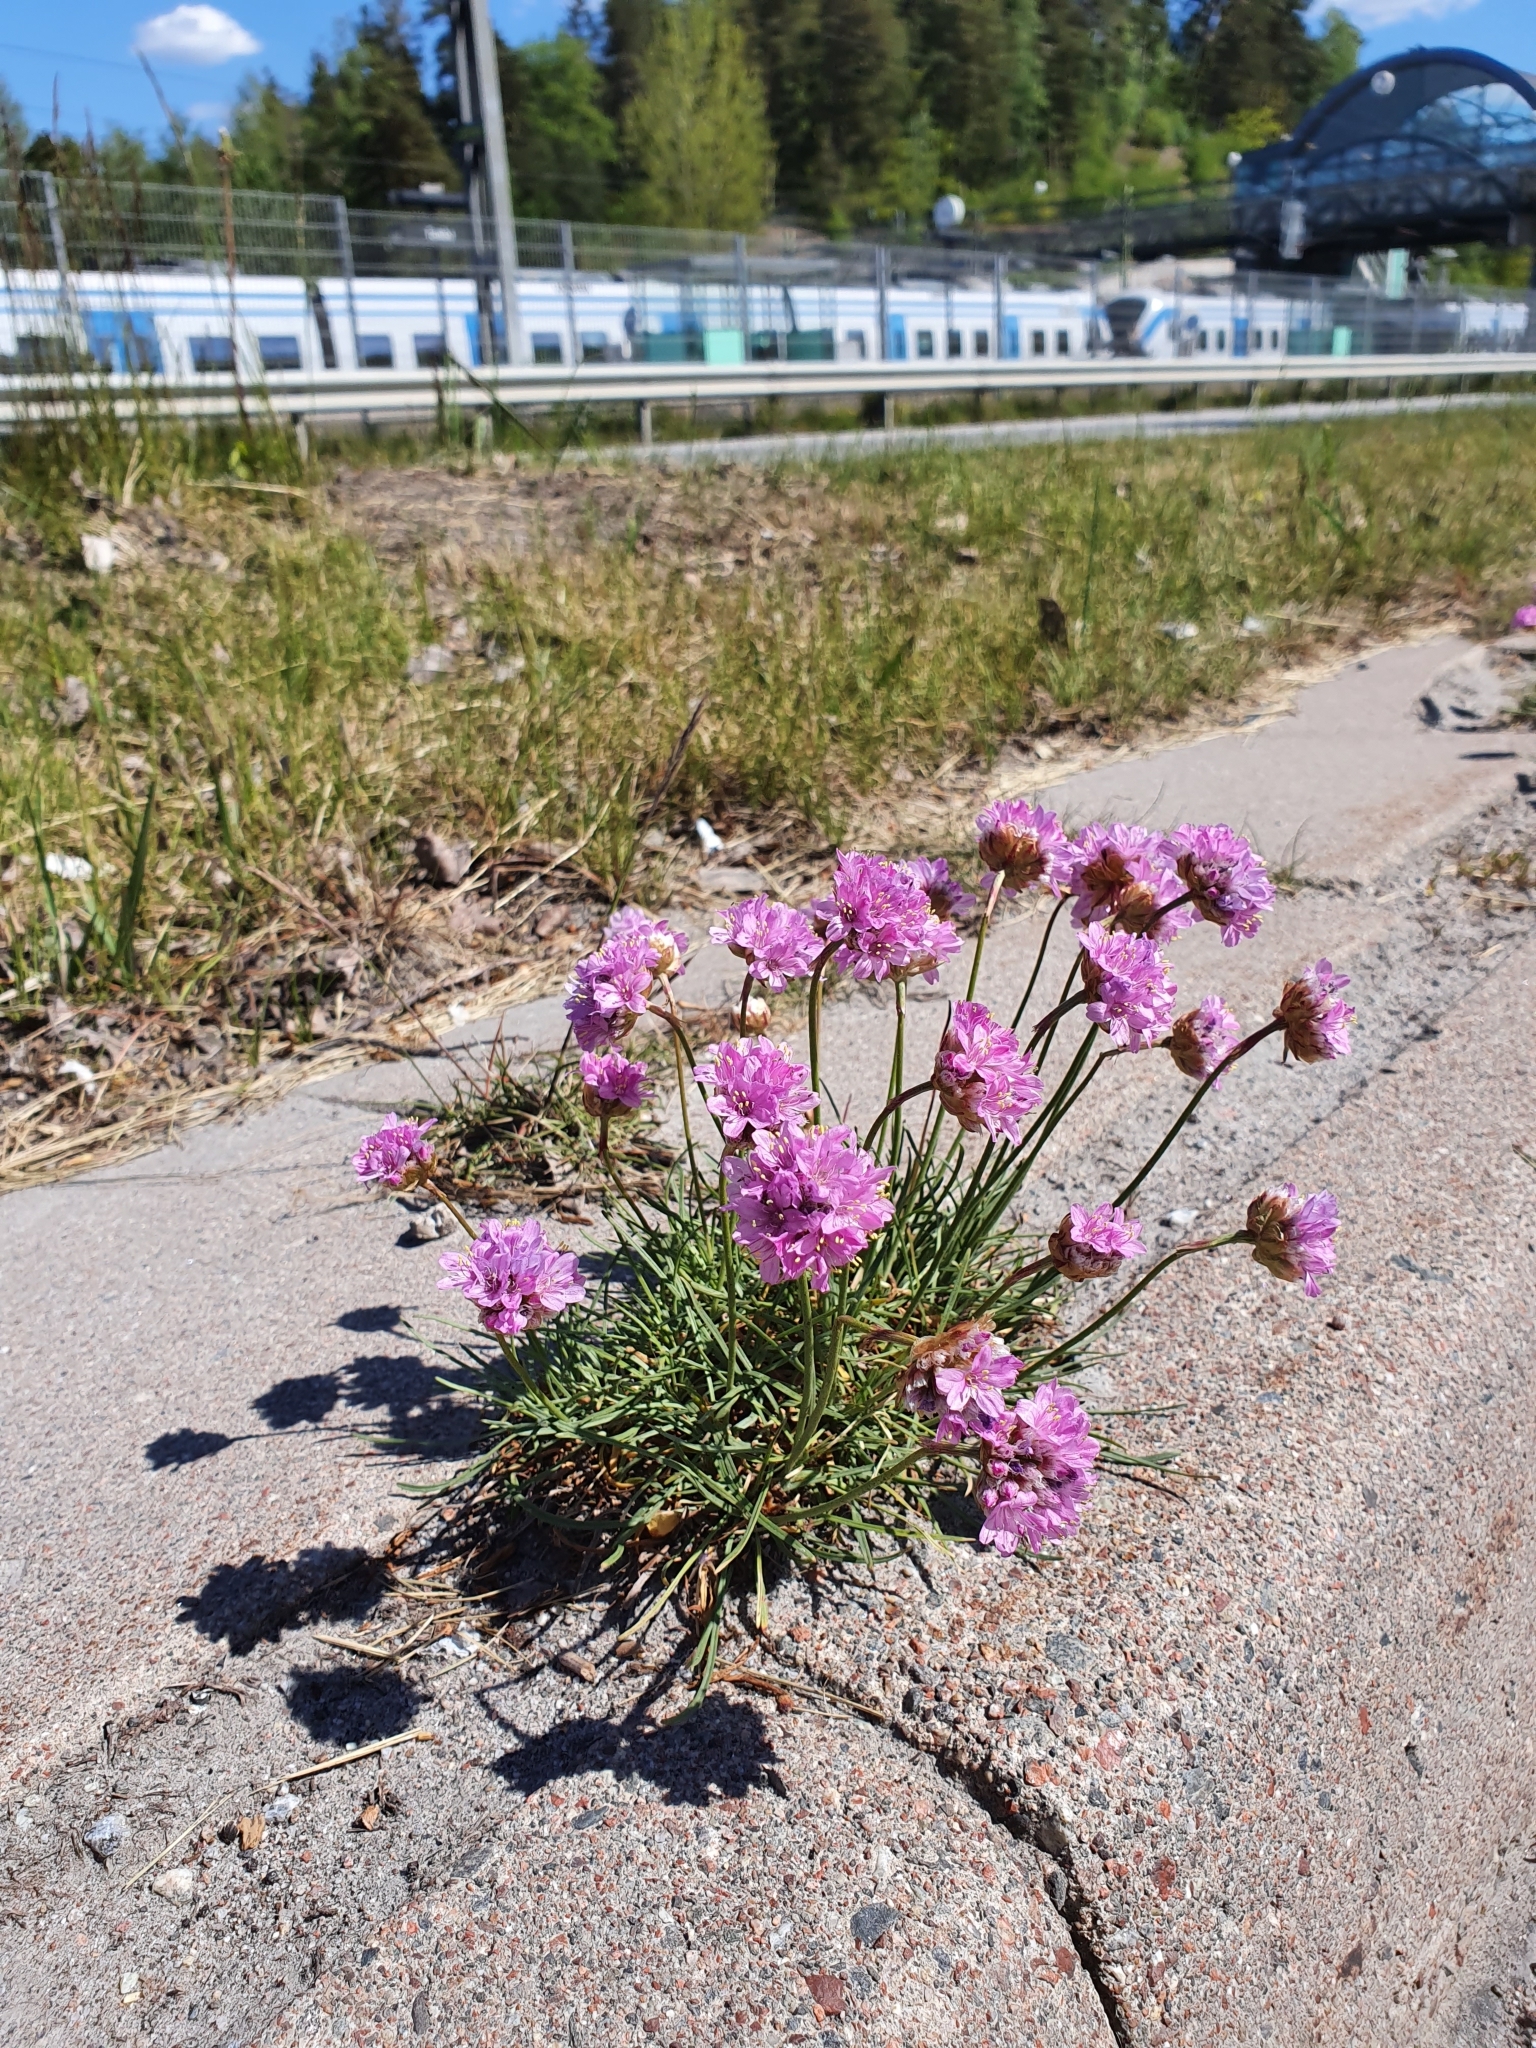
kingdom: Plantae
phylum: Tracheophyta
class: Magnoliopsida
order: Caryophyllales
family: Plumbaginaceae
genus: Armeria
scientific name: Armeria maritima
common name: Thrift
